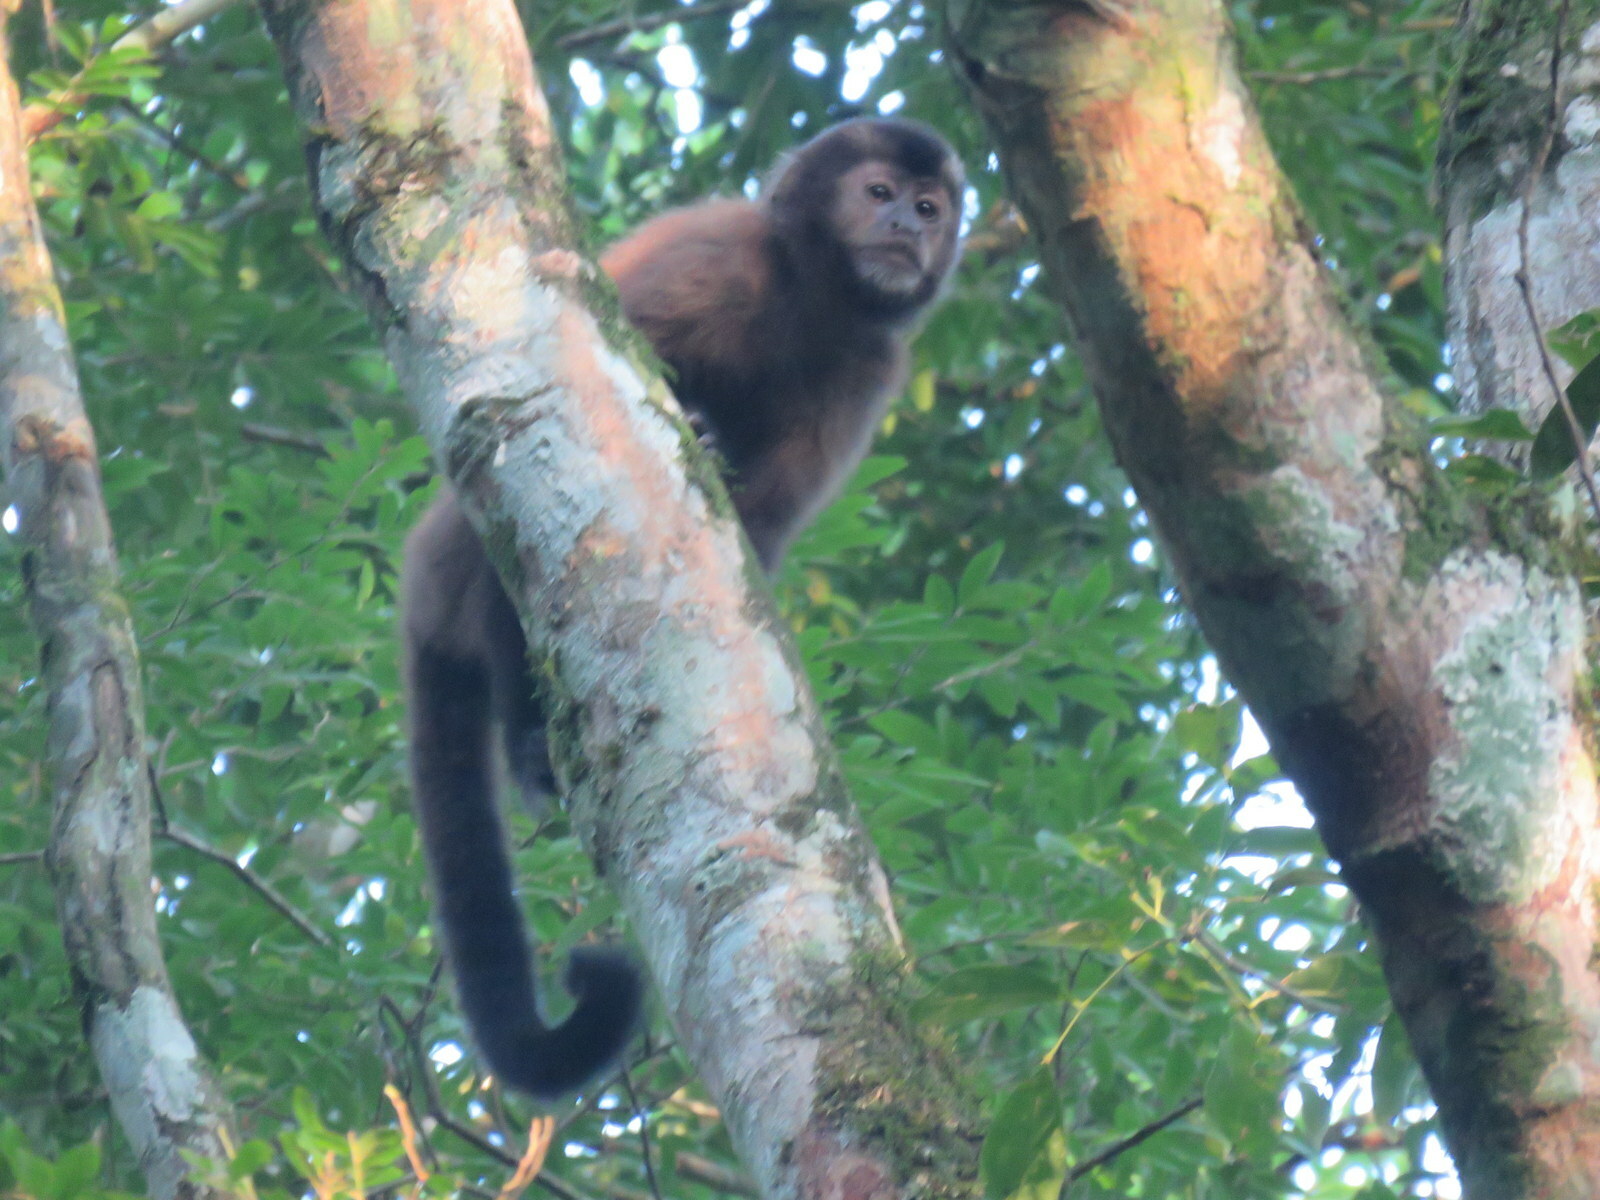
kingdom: Animalia
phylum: Chordata
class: Mammalia
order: Primates
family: Cebidae
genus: Sapajus
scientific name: Sapajus nigritus
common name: Black capuchin
